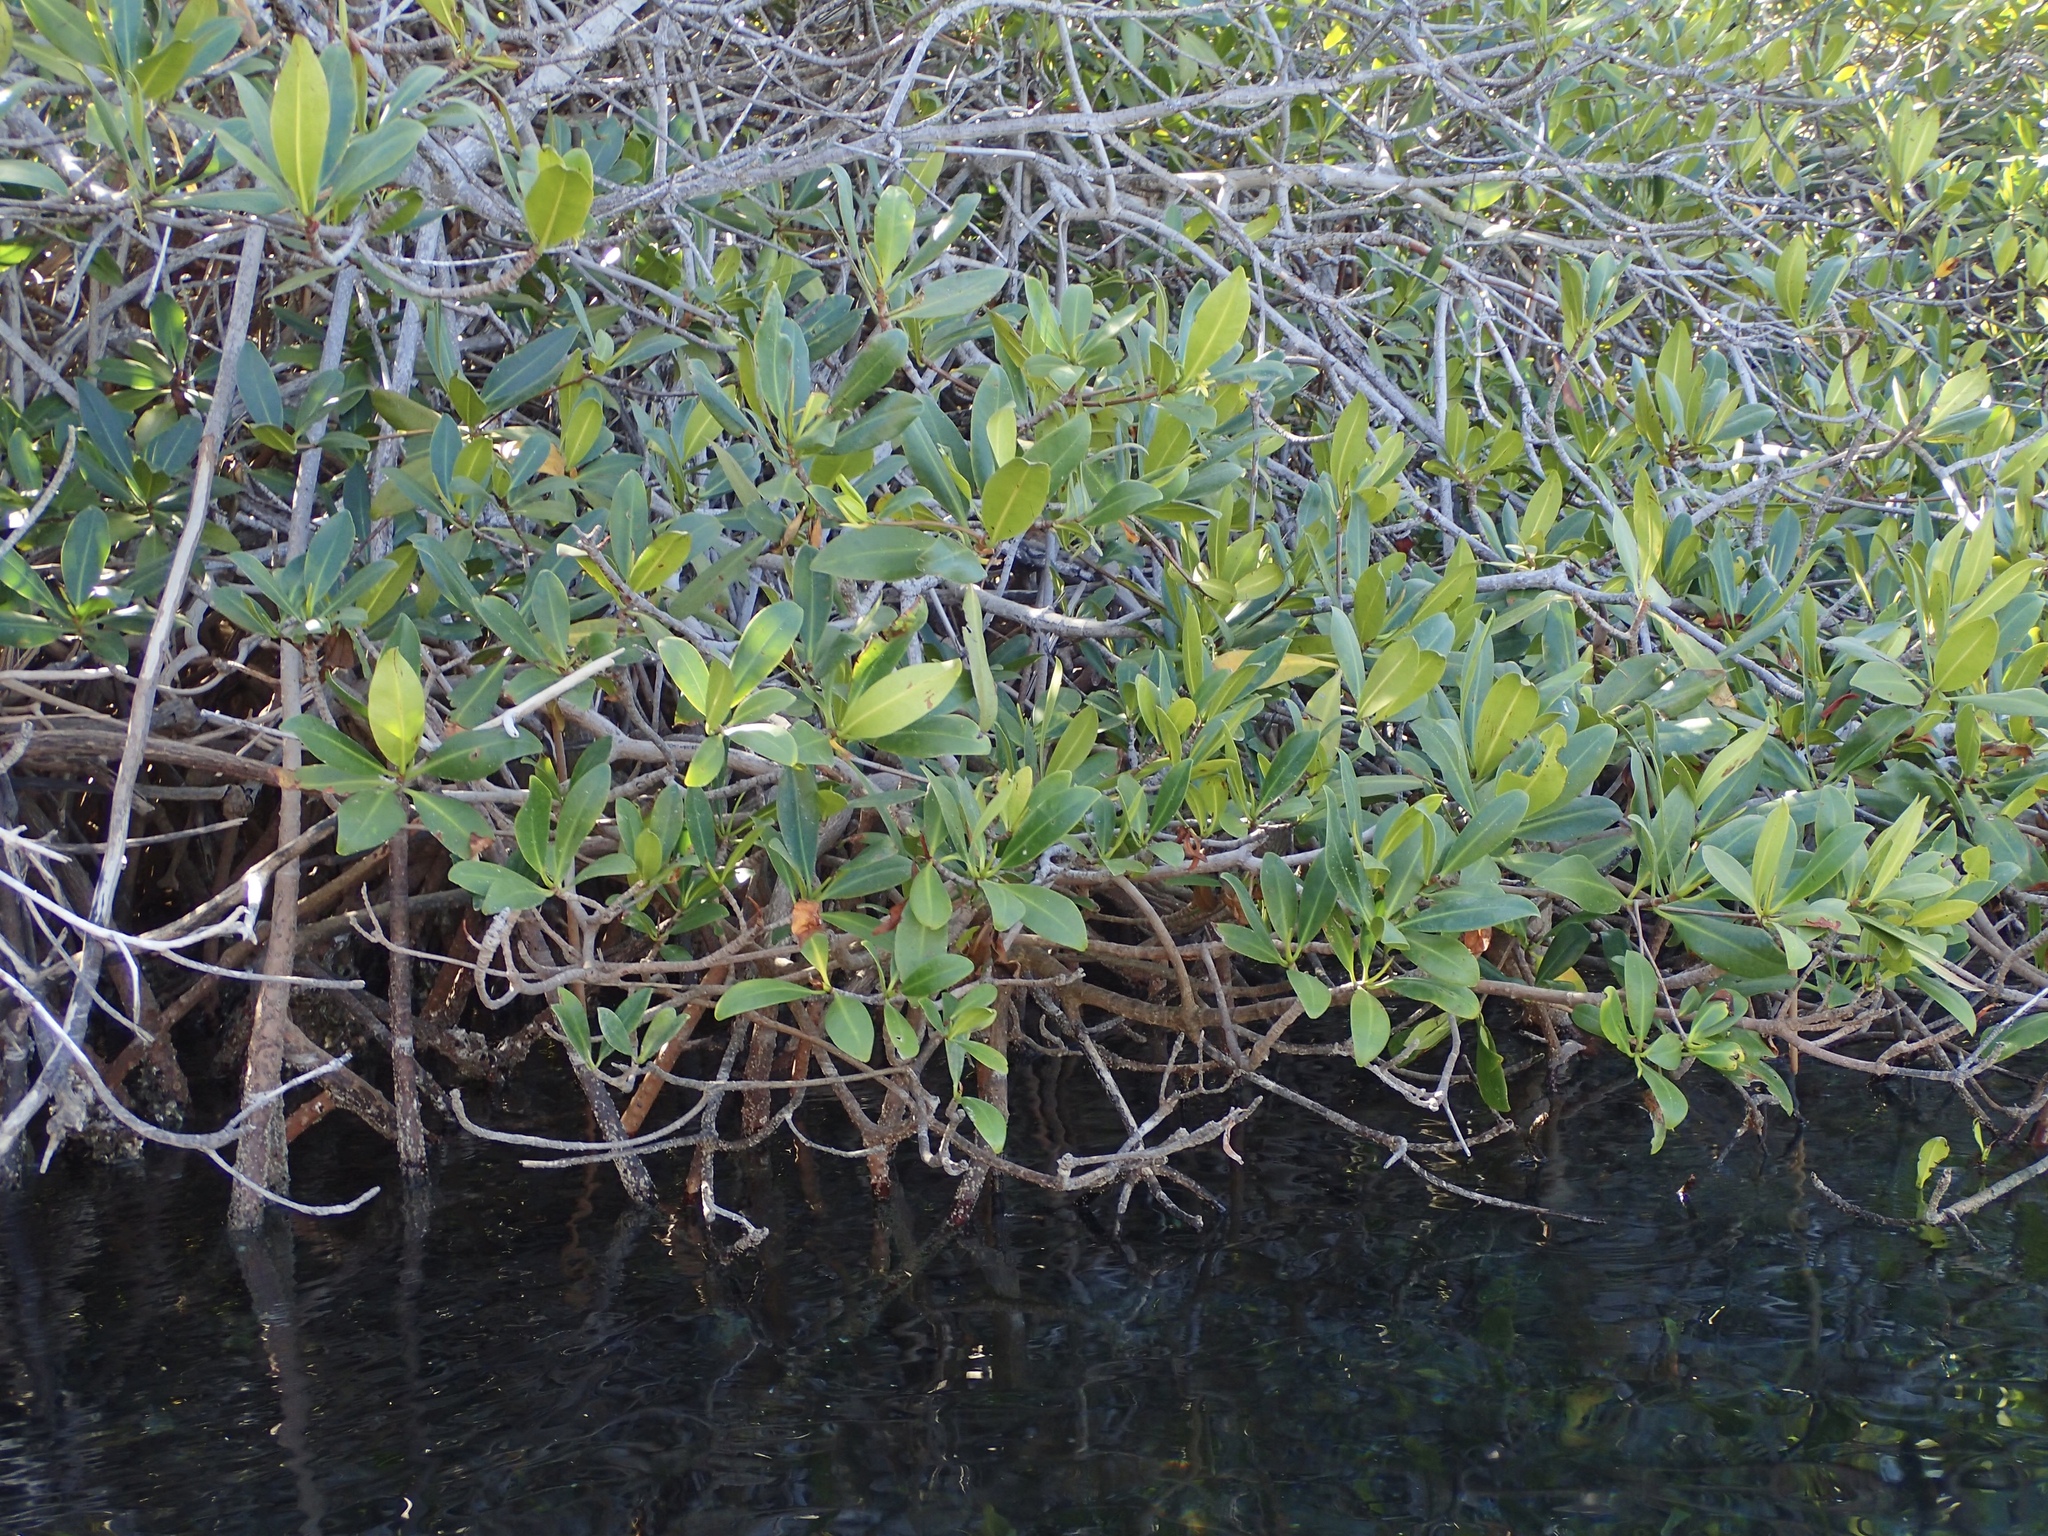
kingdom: Plantae
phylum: Tracheophyta
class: Magnoliopsida
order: Malpighiales
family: Rhizophoraceae
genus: Rhizophora
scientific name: Rhizophora mangle
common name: Red mangrove
